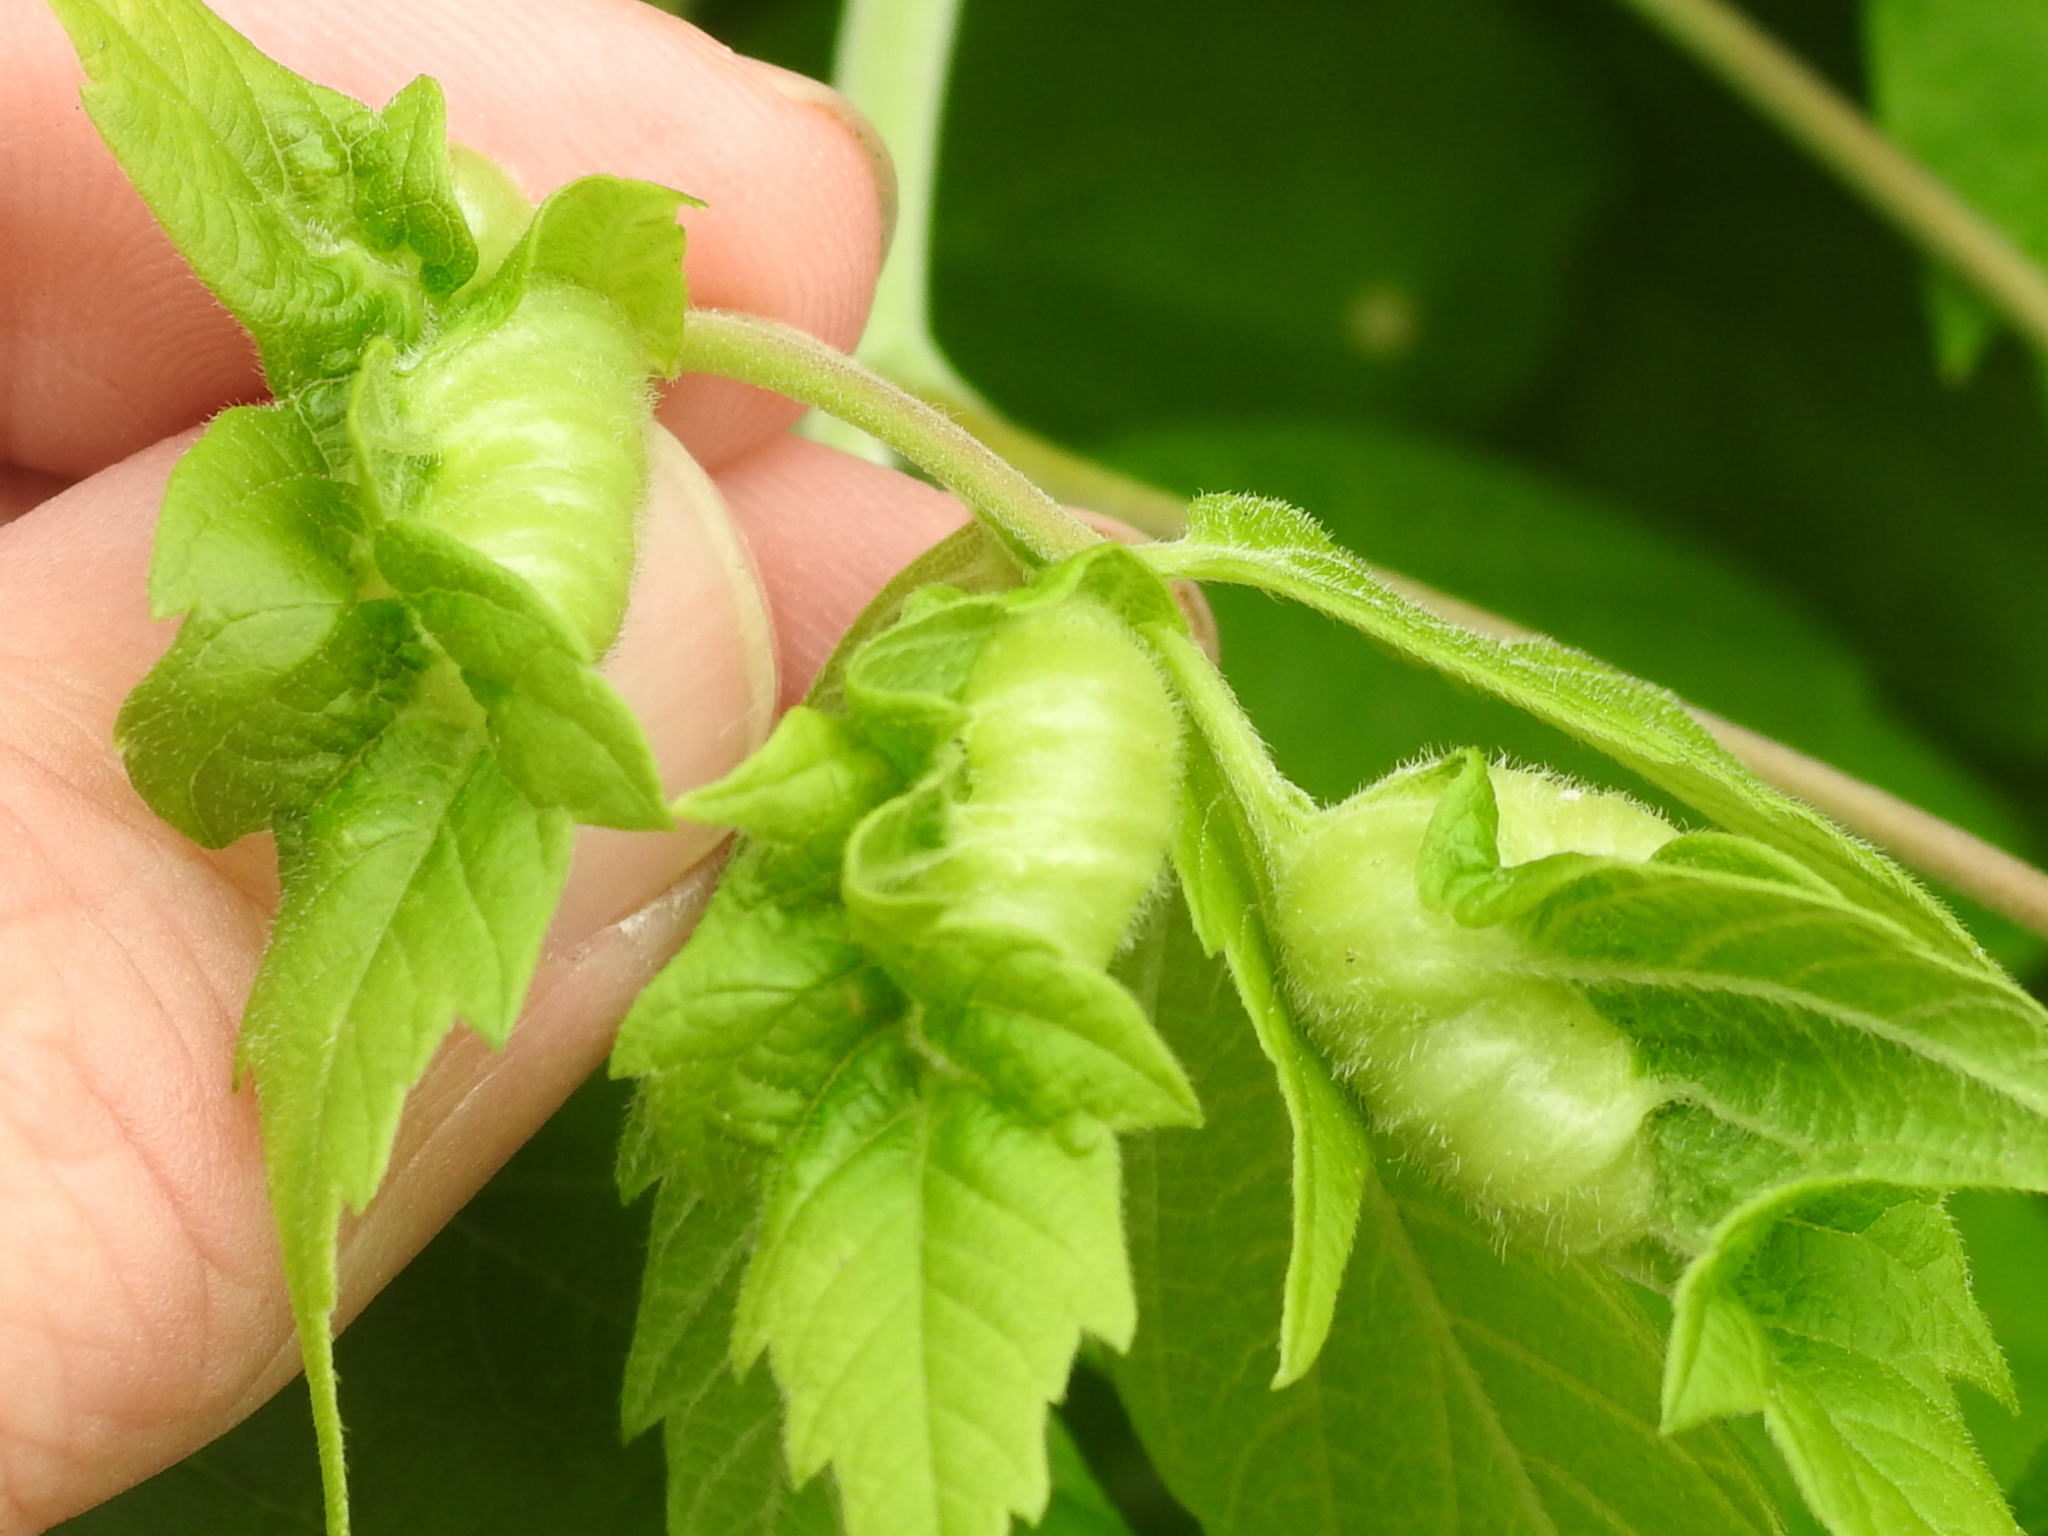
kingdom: Animalia
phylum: Arthropoda
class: Insecta
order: Diptera
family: Cecidomyiidae
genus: Contarinia
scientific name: Contarinia negundinis
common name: Boxelder budgall midge
